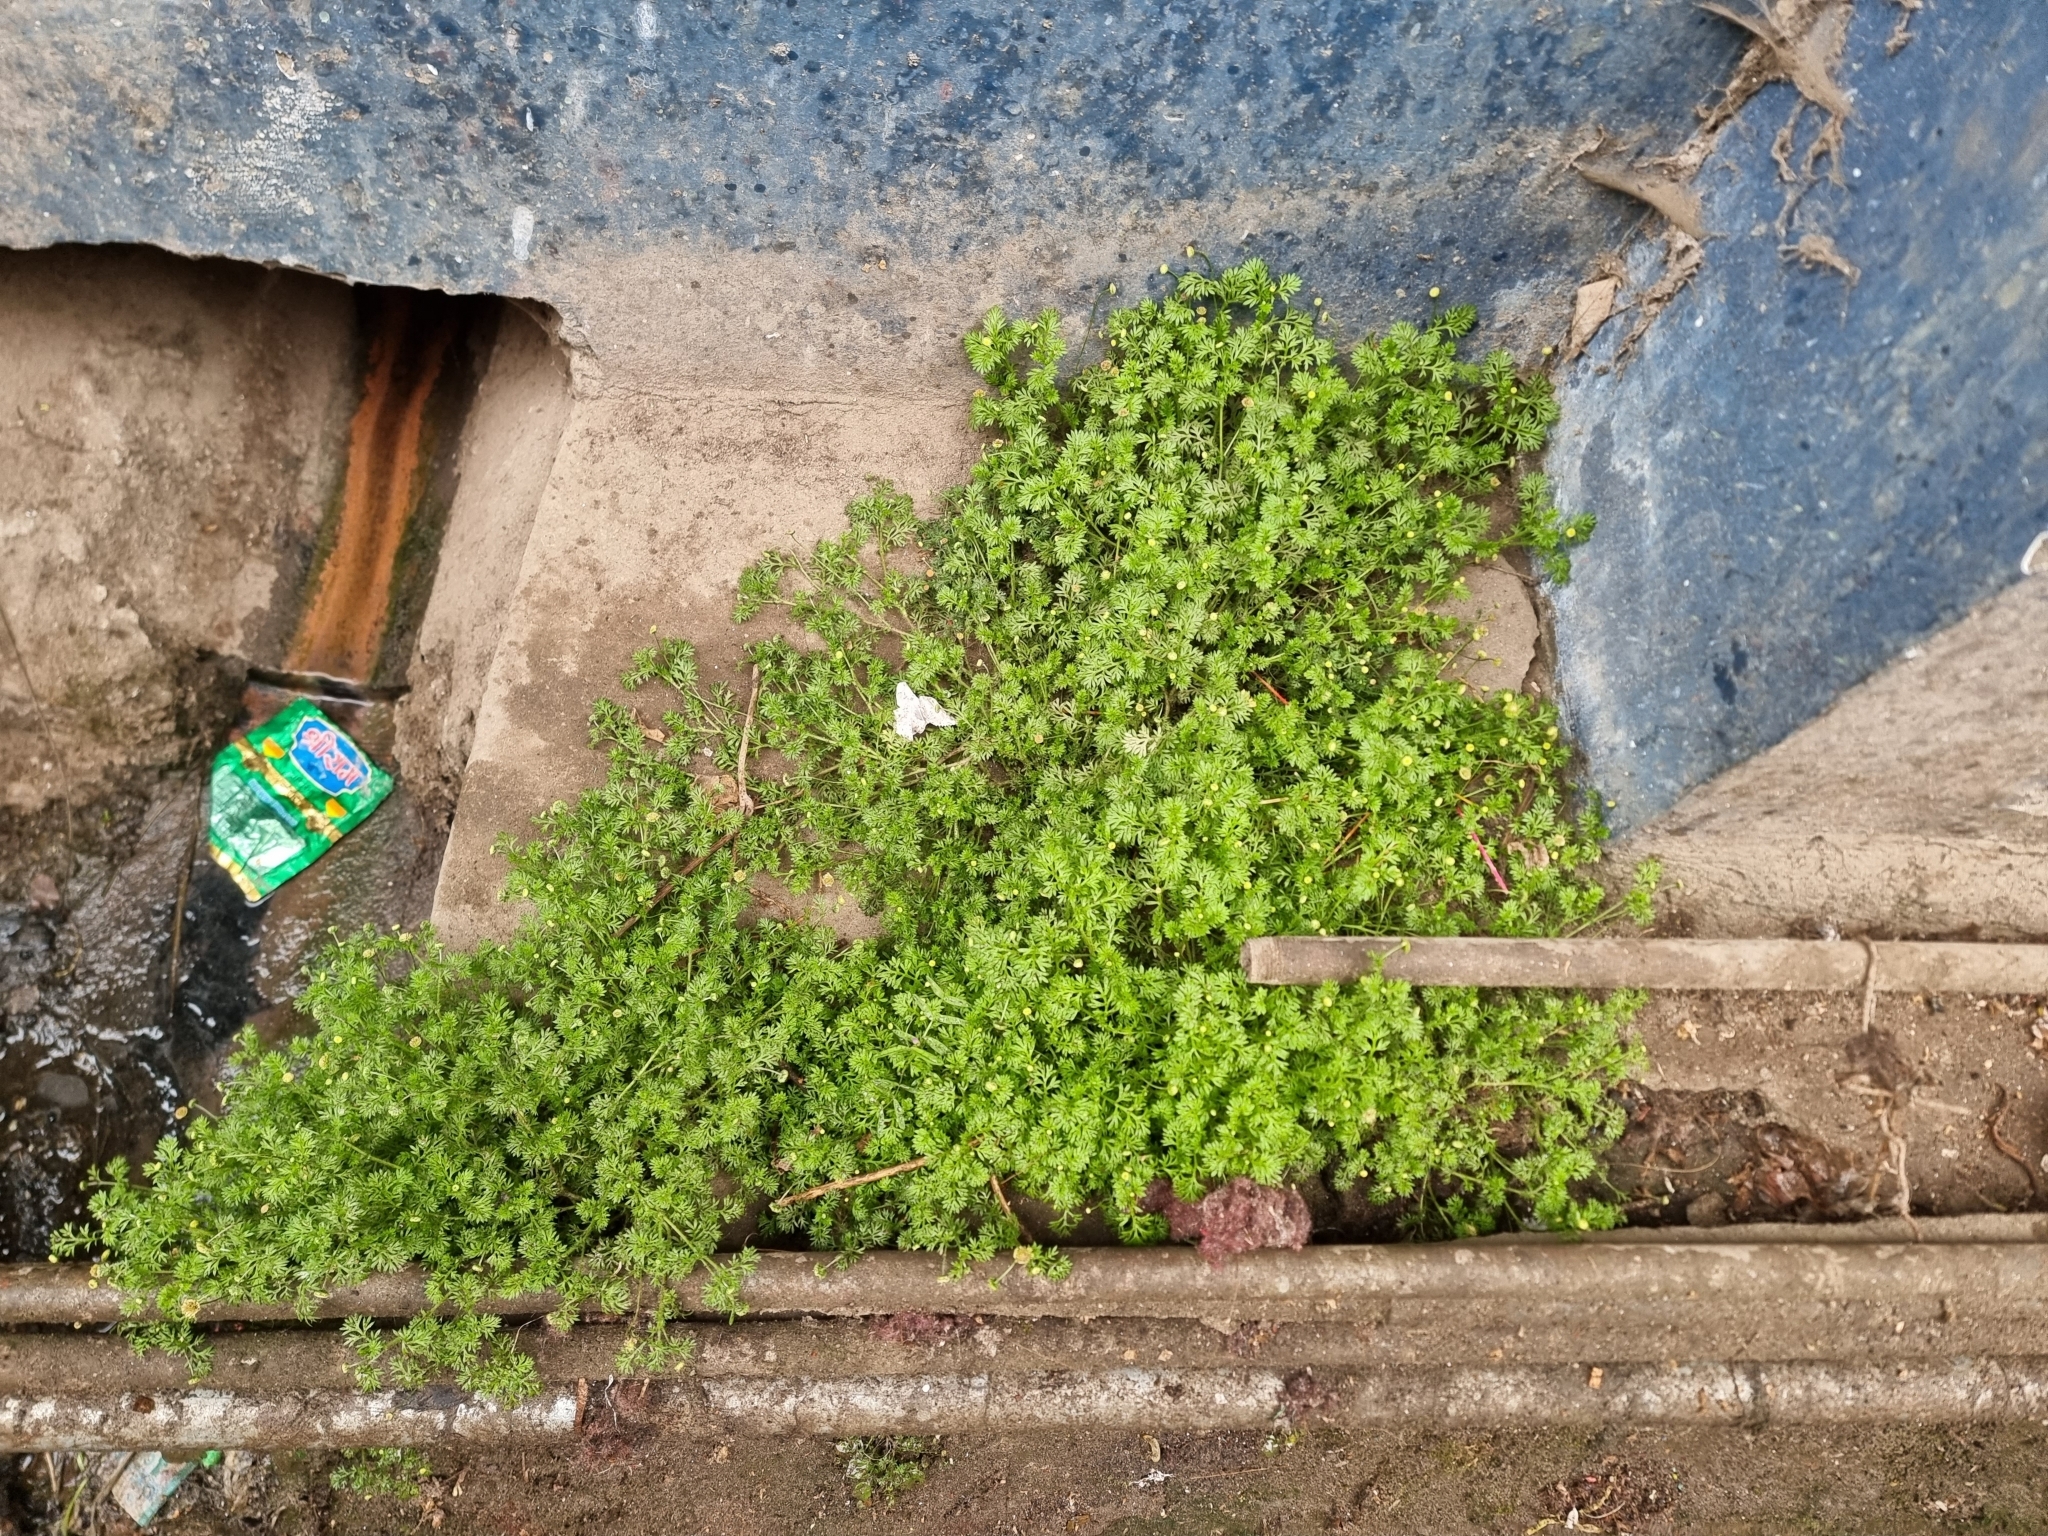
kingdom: Plantae
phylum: Tracheophyta
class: Magnoliopsida
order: Asterales
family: Asteraceae
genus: Cotula
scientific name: Cotula australis
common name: Australian waterbuttons
